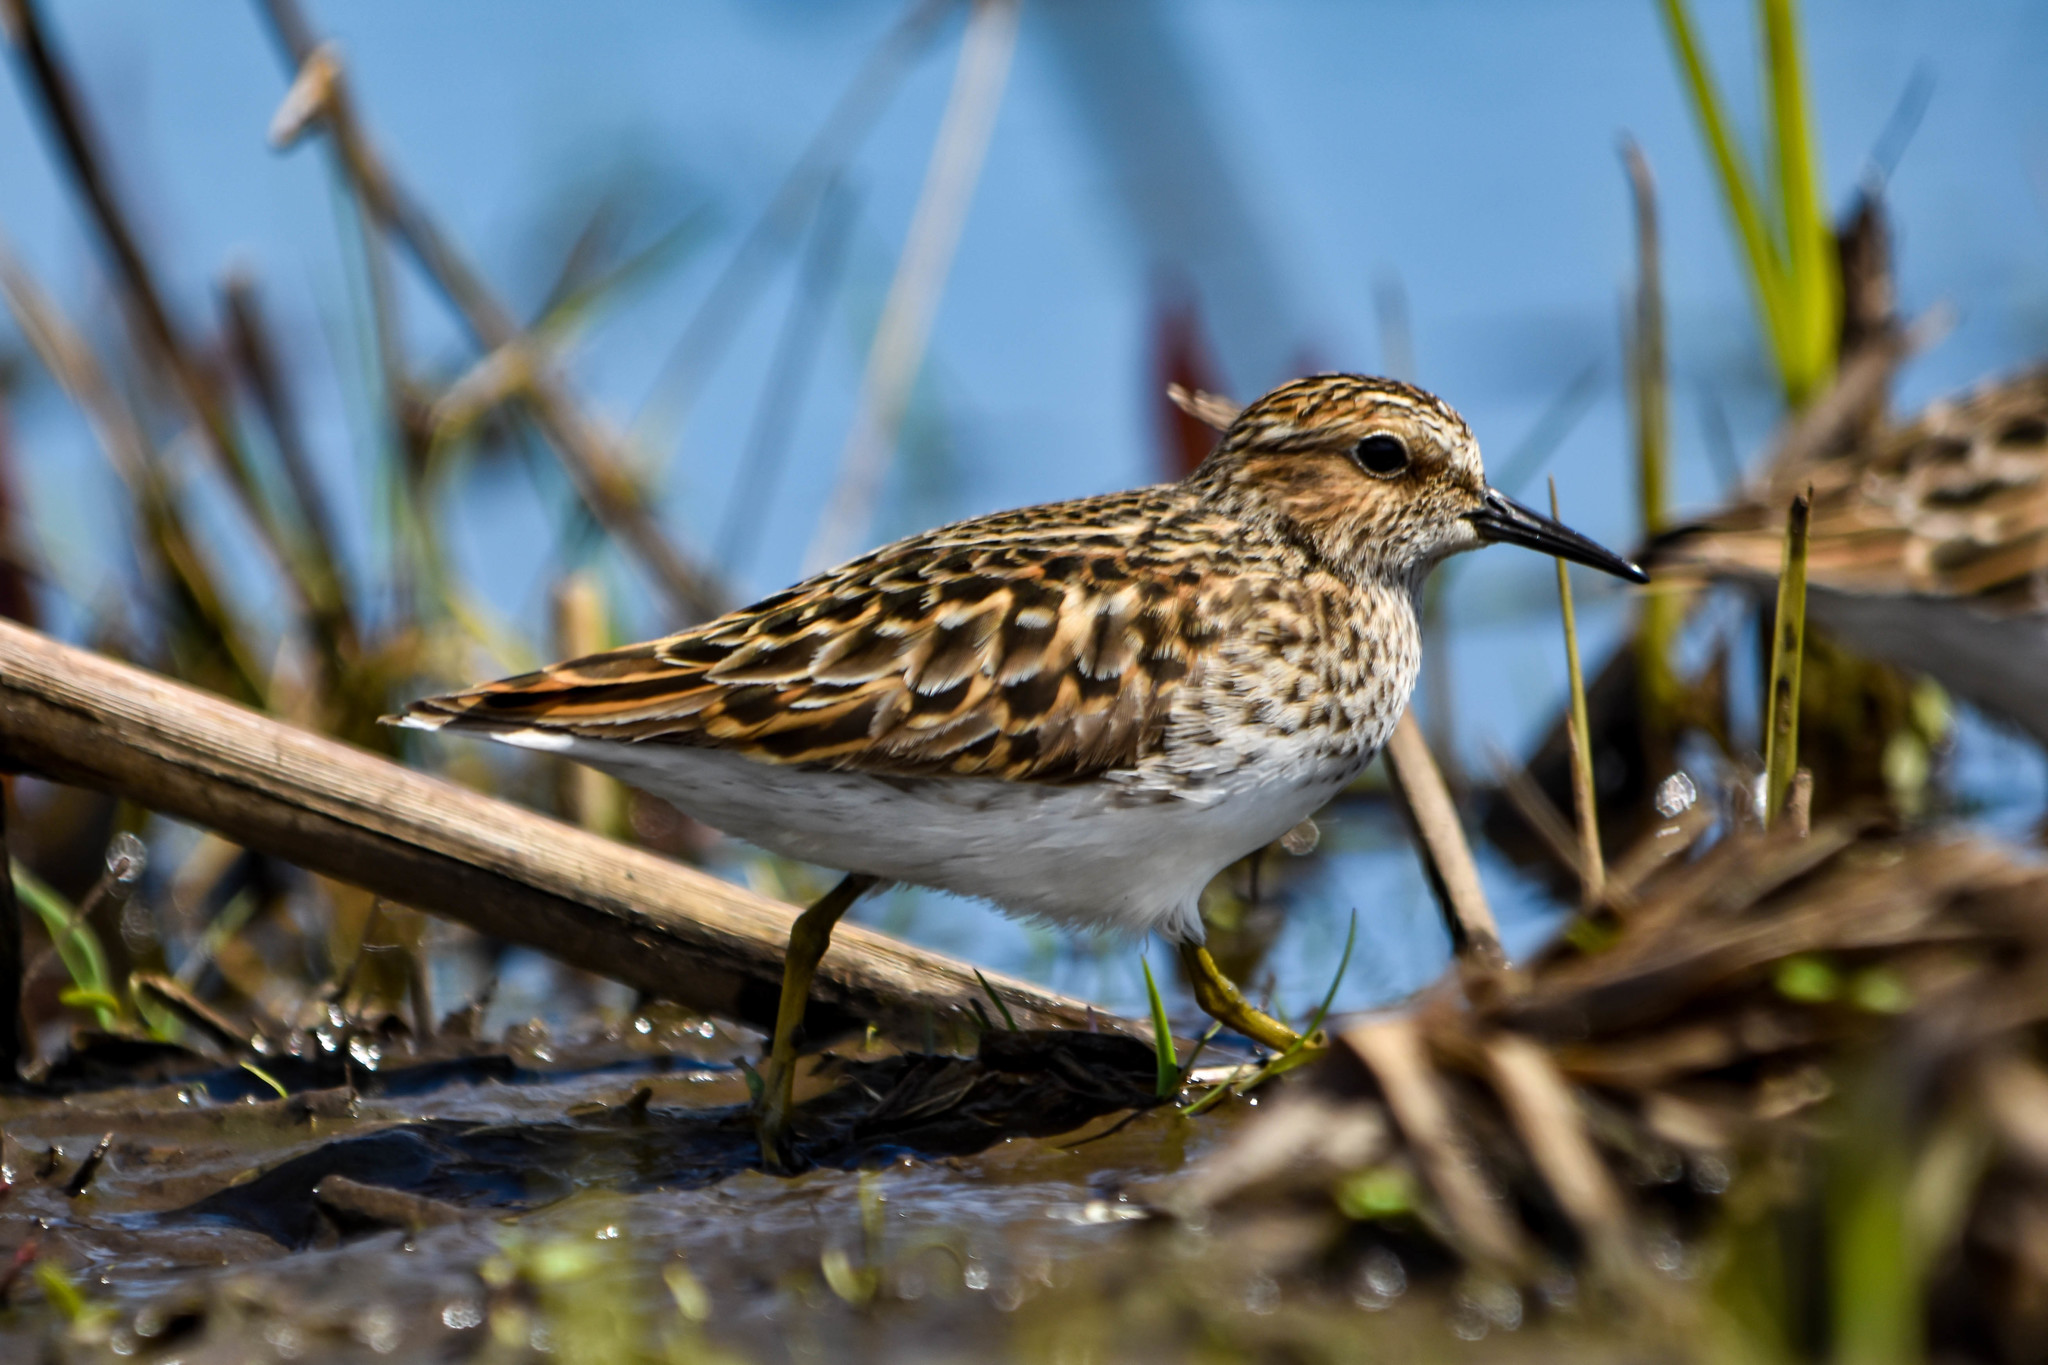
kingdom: Animalia
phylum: Chordata
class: Aves
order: Charadriiformes
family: Scolopacidae
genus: Calidris
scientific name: Calidris minutilla
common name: Least sandpiper
